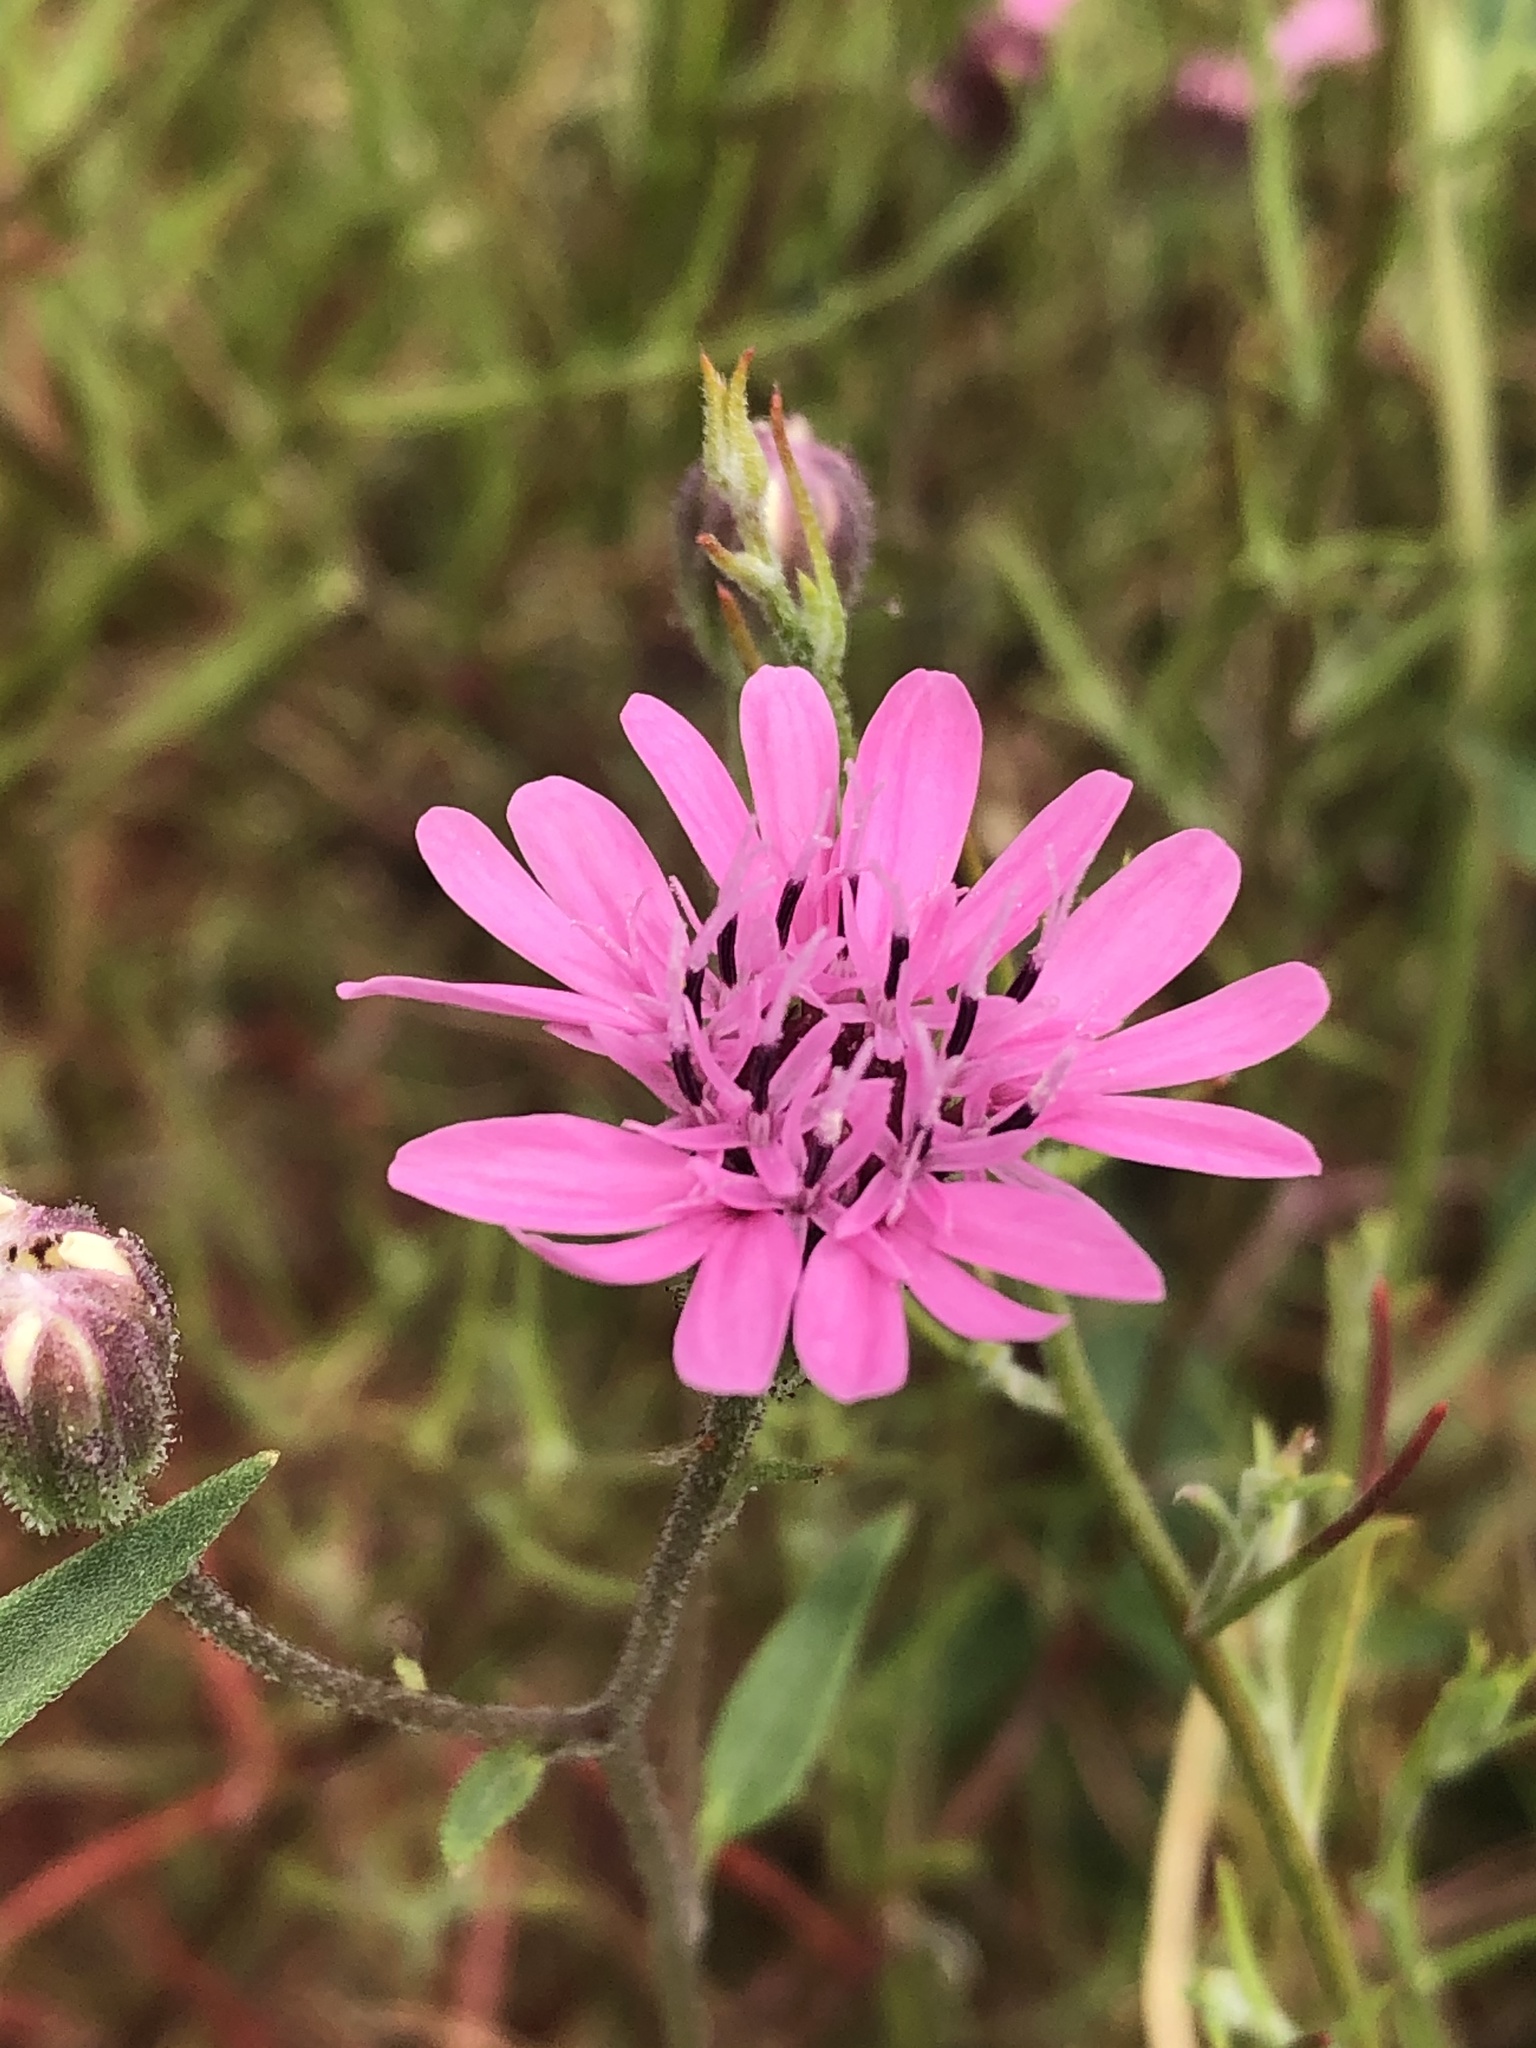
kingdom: Plantae
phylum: Tracheophyta
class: Magnoliopsida
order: Asterales
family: Asteraceae
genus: Palafoxia
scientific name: Palafoxia sphacelata
